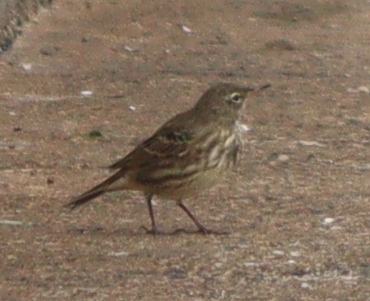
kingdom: Animalia
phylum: Chordata
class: Aves
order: Passeriformes
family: Motacillidae
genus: Anthus
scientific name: Anthus petrosus
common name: Eurasian rock pipit
